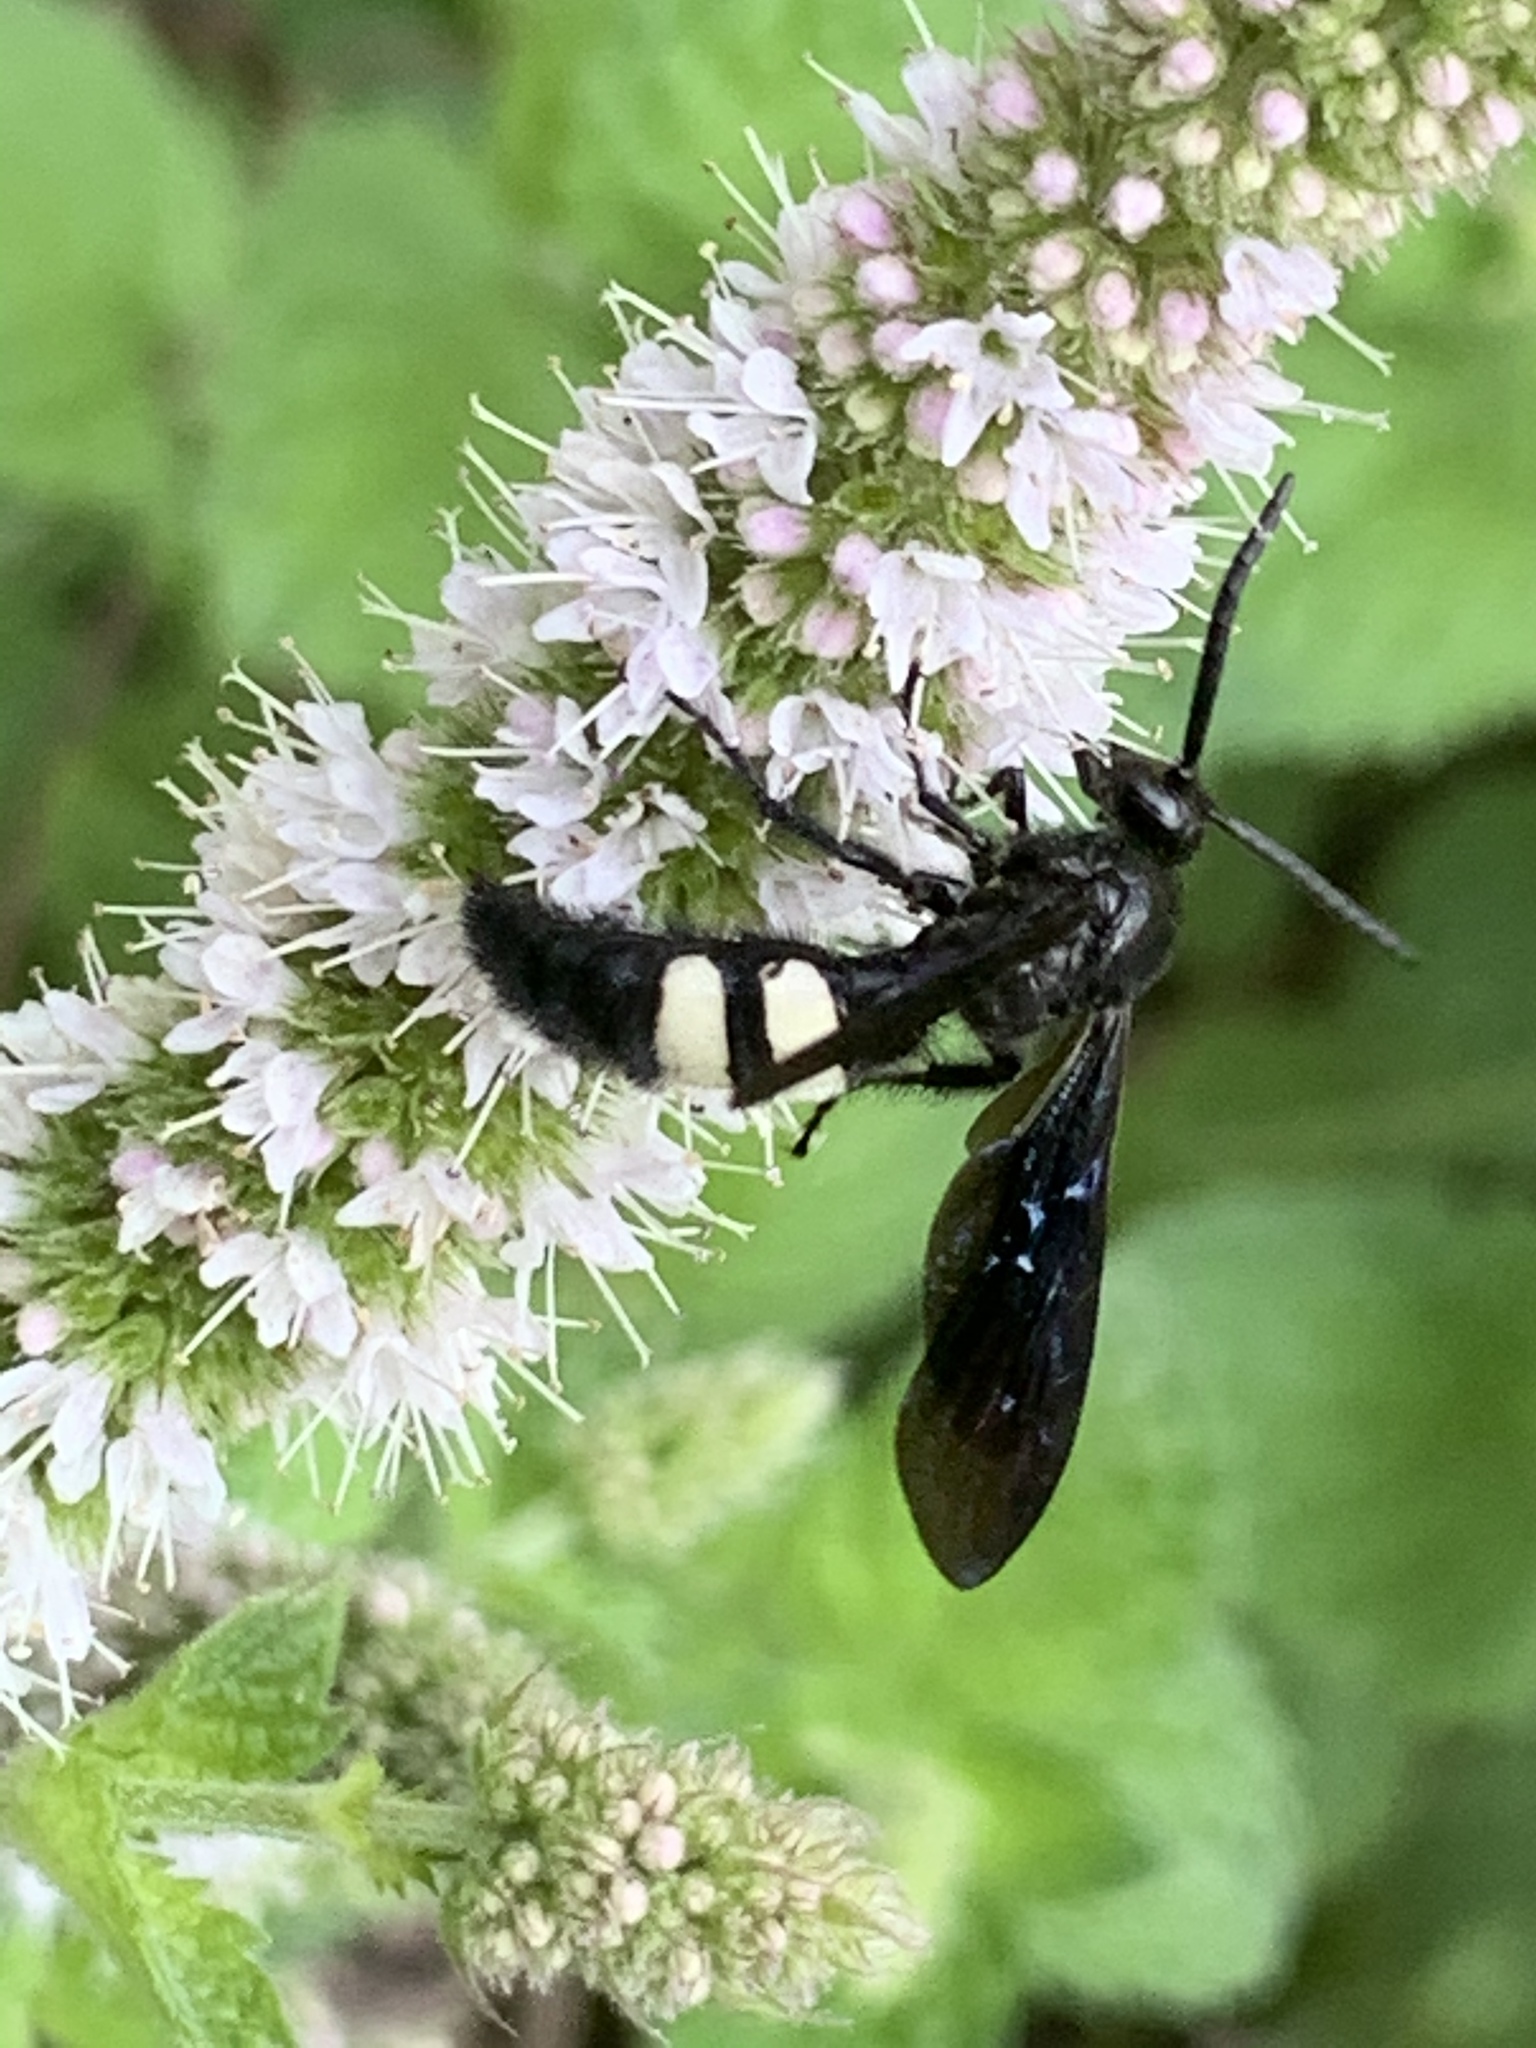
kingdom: Animalia
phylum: Arthropoda
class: Insecta
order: Hymenoptera
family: Scoliidae
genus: Scolia
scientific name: Scolia bicincta
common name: Double-banded scoliid wasp
